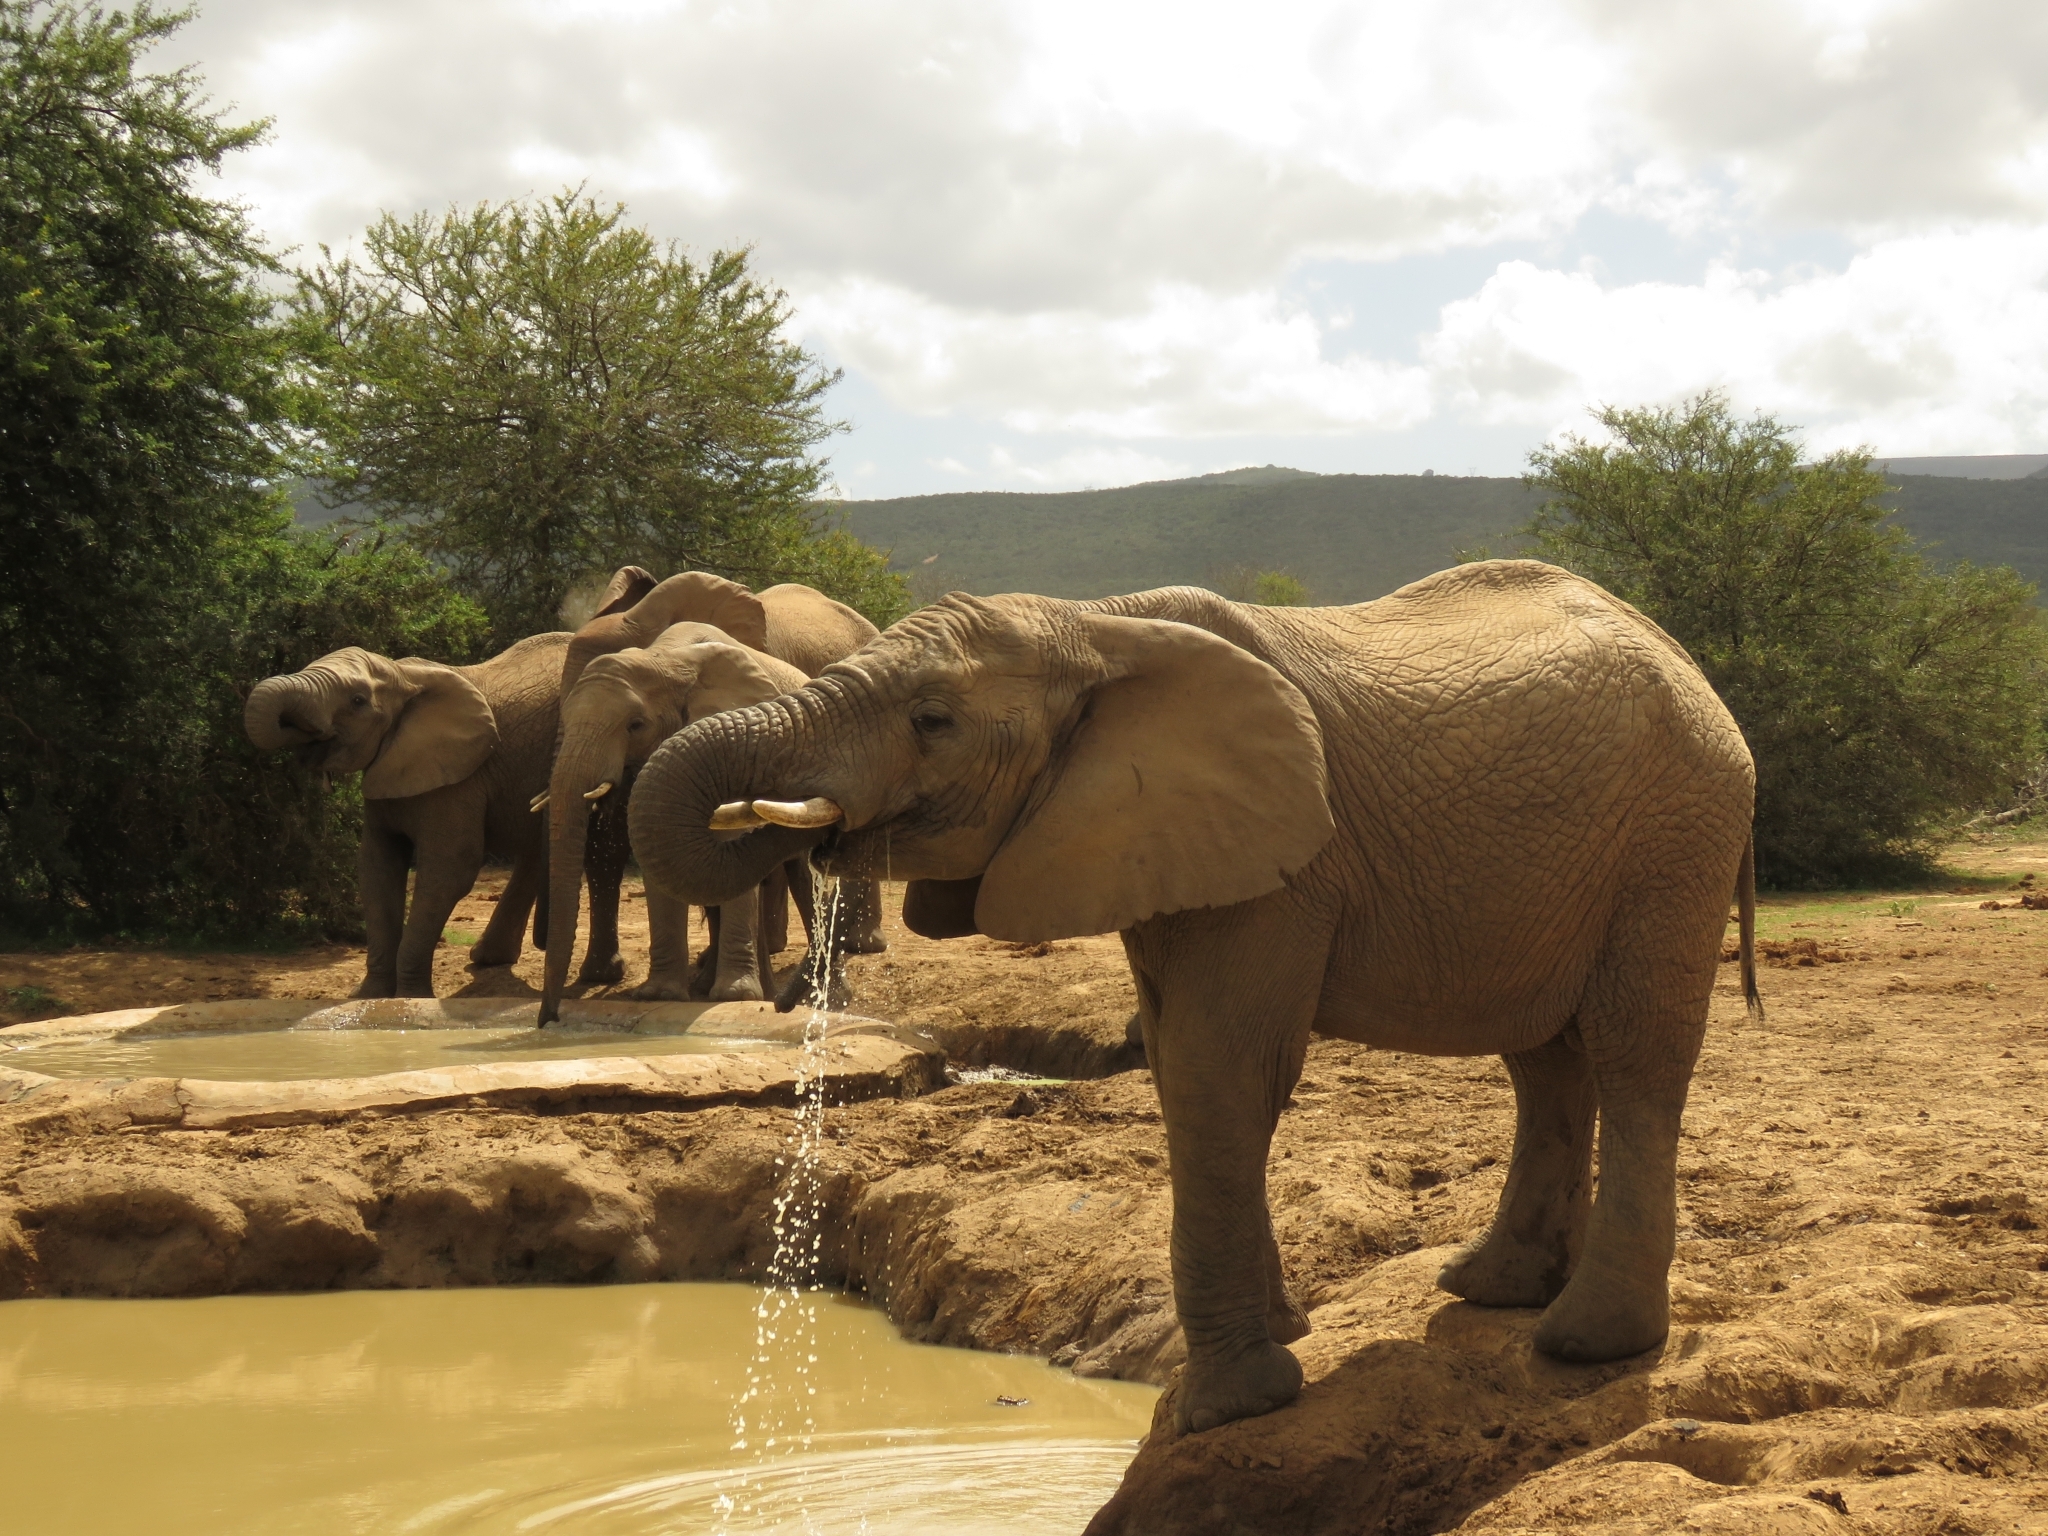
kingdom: Animalia
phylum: Chordata
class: Mammalia
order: Proboscidea
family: Elephantidae
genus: Loxodonta
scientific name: Loxodonta africana
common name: African elephant
